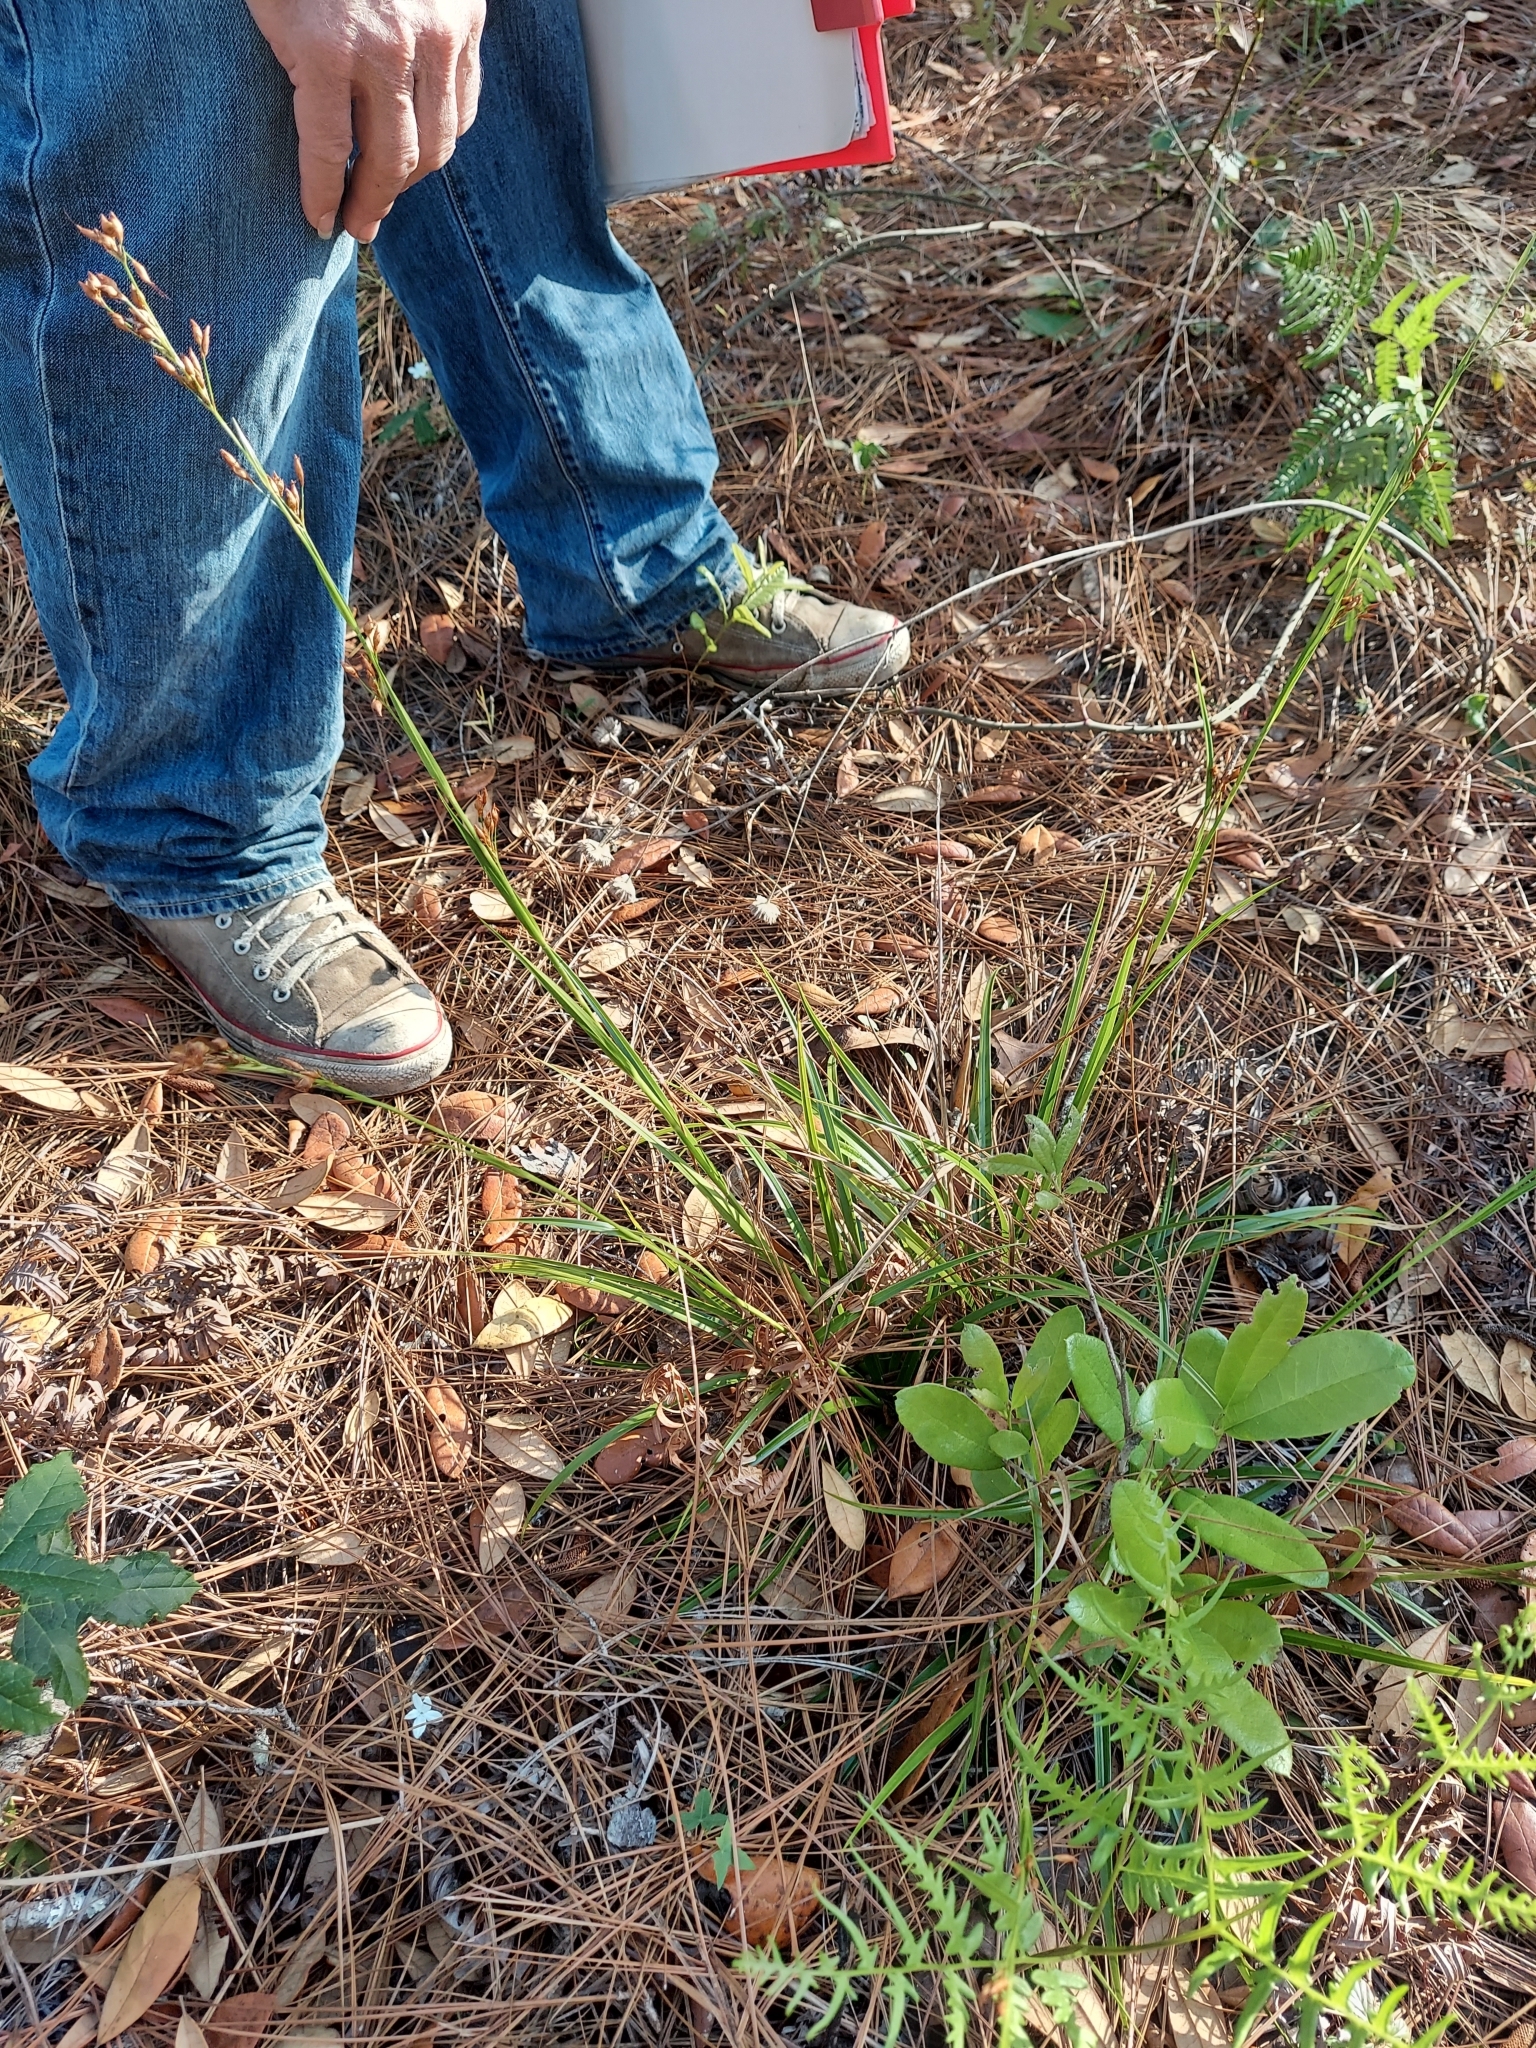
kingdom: Plantae
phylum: Tracheophyta
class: Liliopsida
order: Poales
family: Cyperaceae
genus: Rhynchospora
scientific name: Rhynchospora megalocarpa
